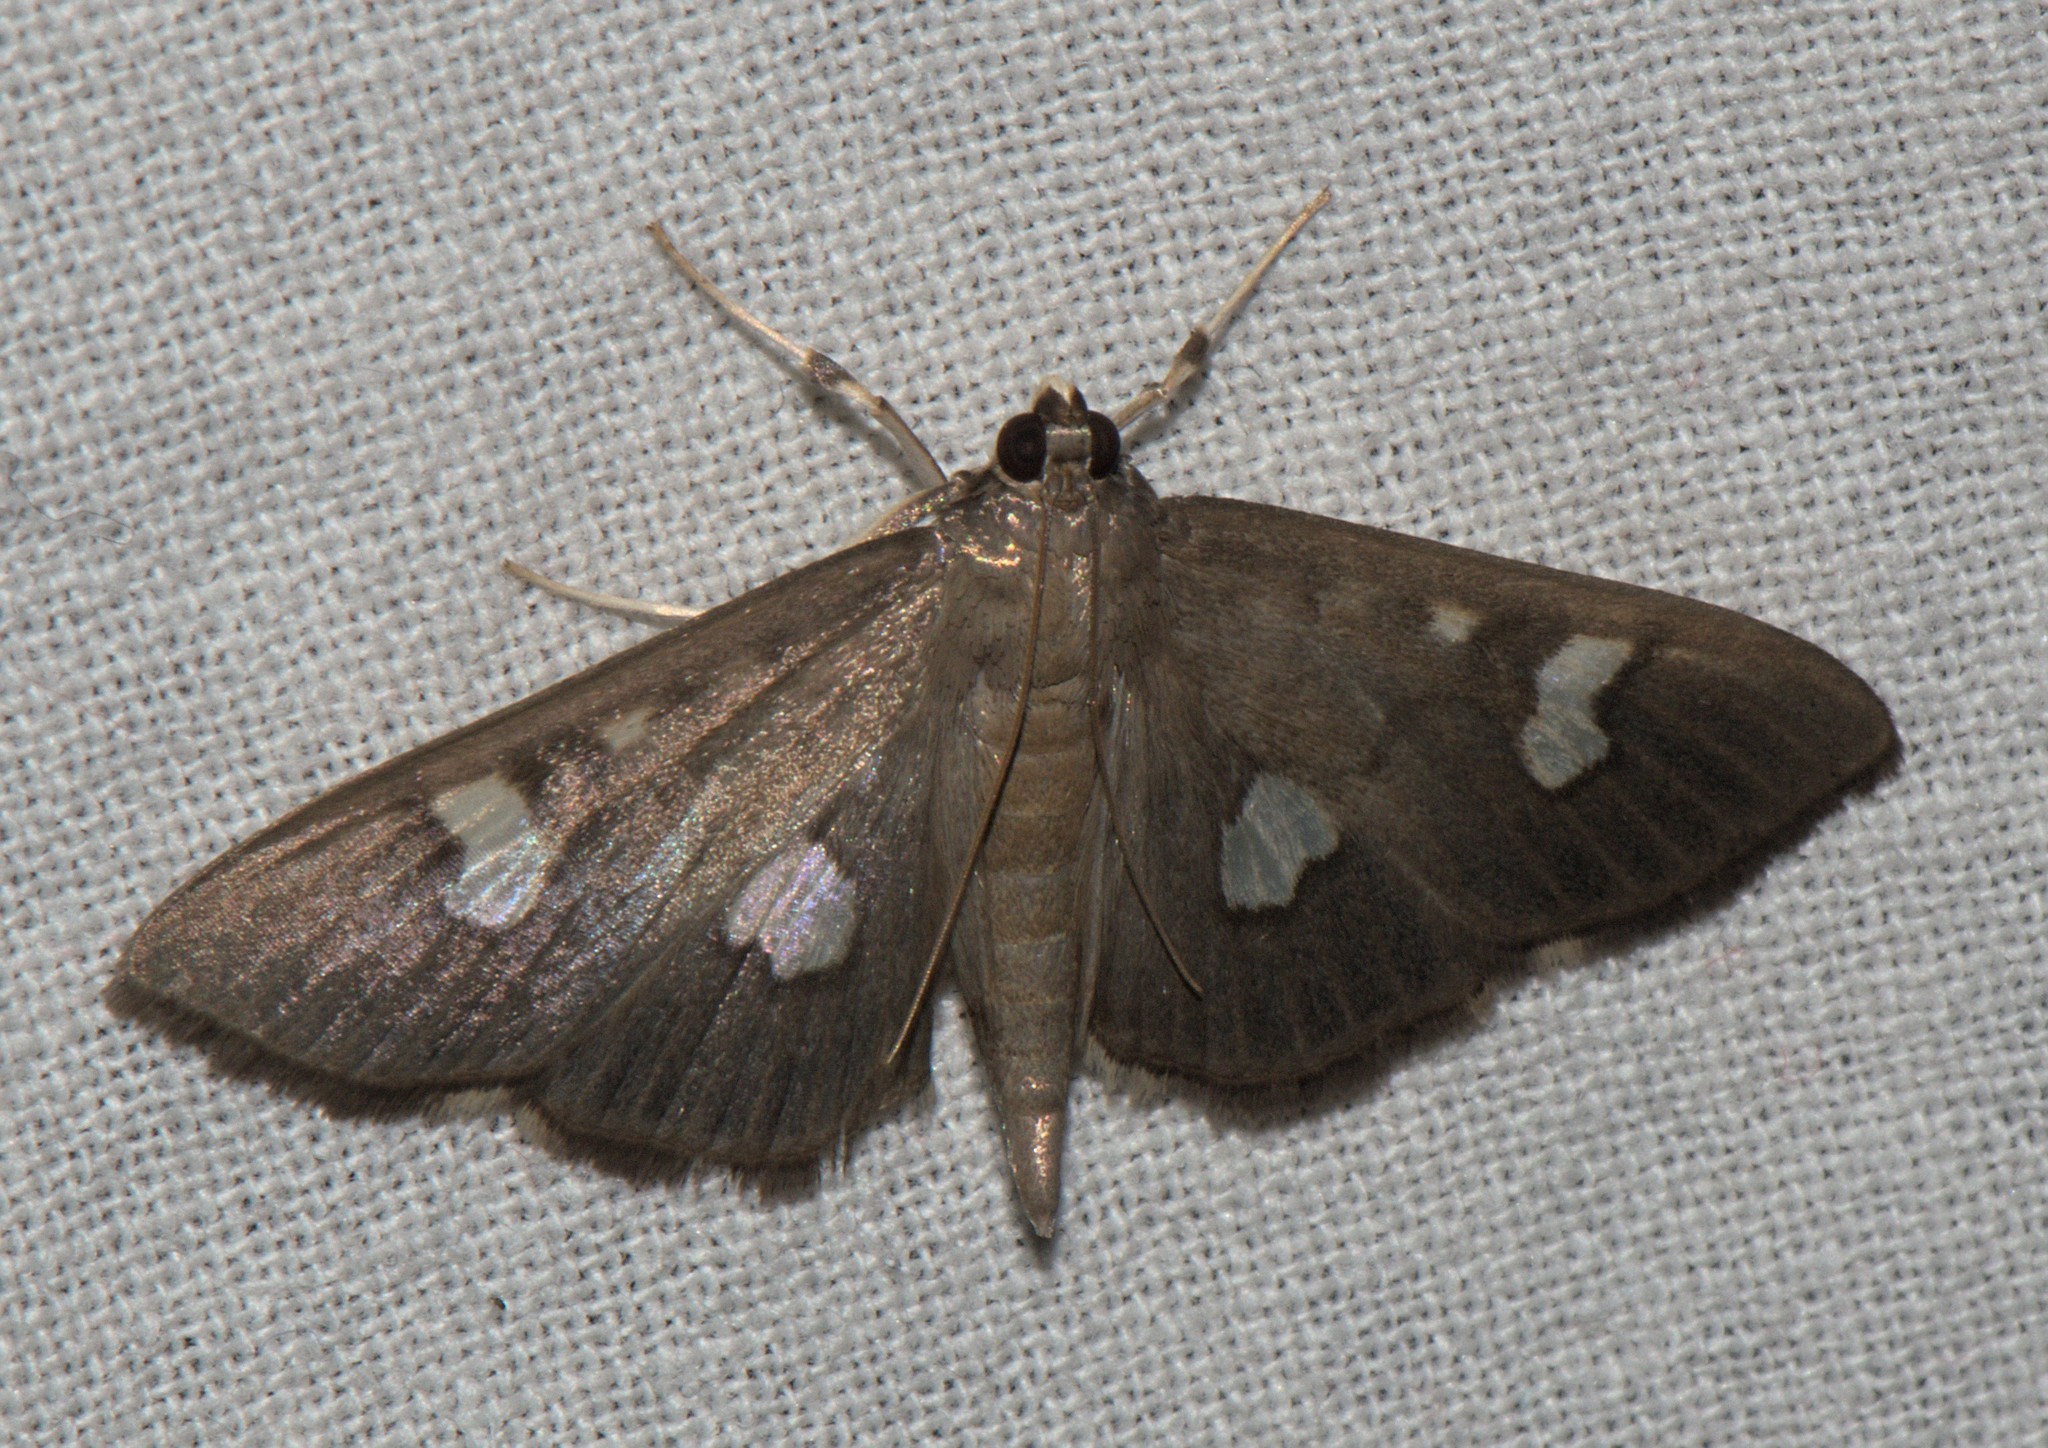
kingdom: Animalia
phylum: Arthropoda
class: Insecta
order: Lepidoptera
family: Crambidae
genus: Nagiella
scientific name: Nagiella quadrimaculalis
